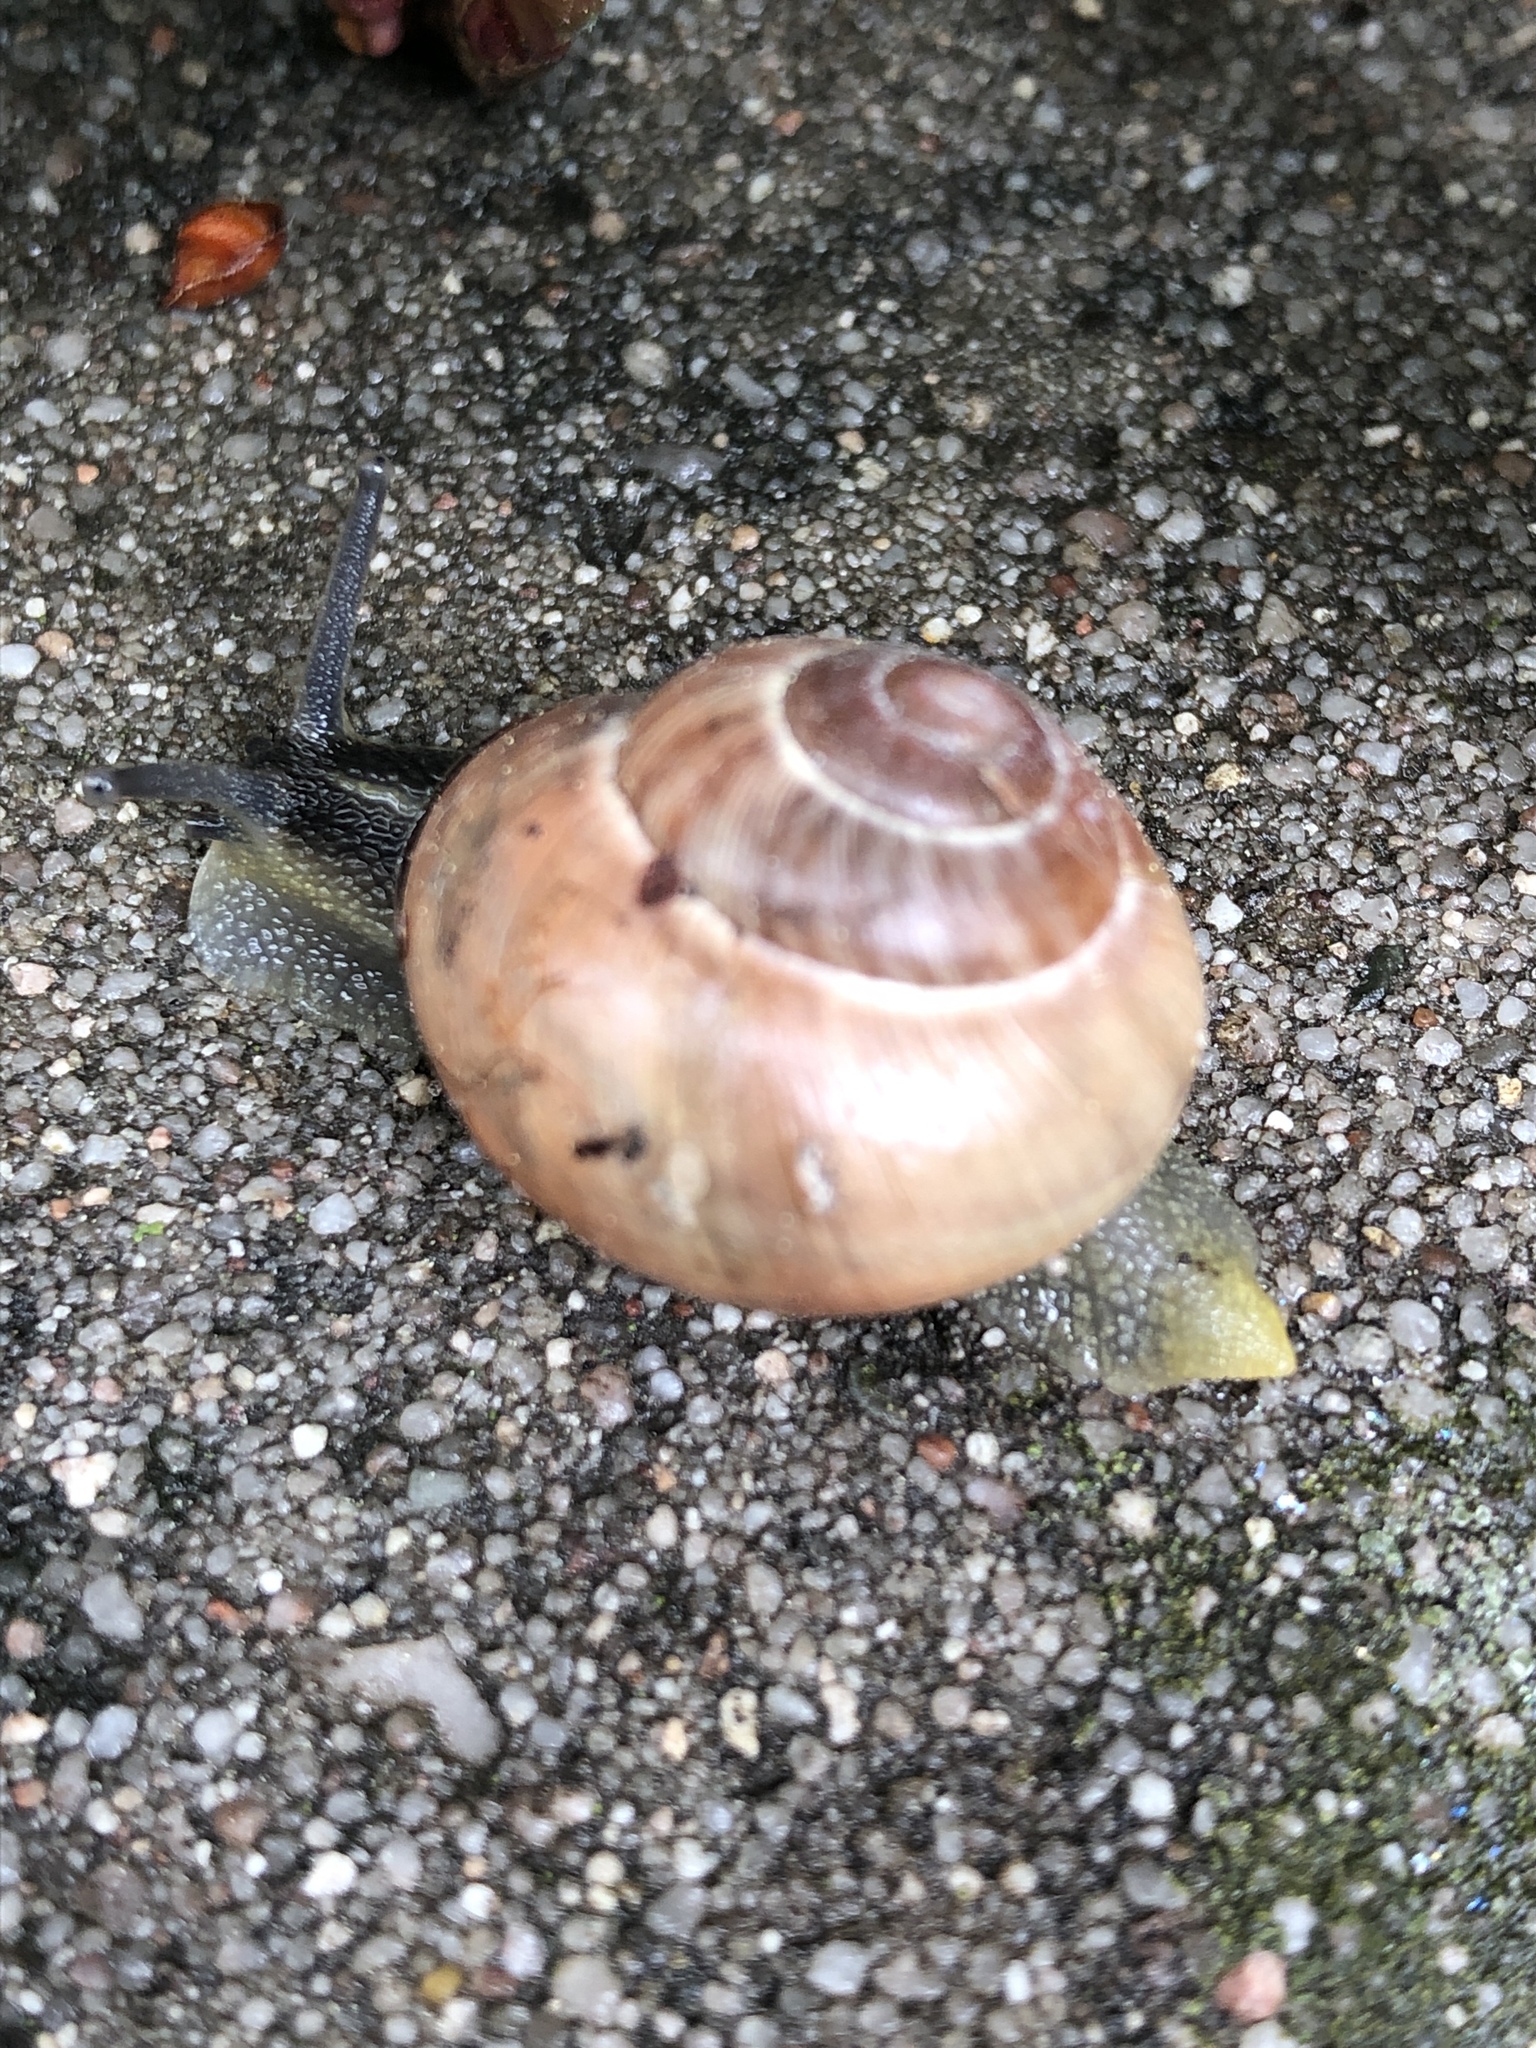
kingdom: Animalia
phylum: Mollusca
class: Gastropoda
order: Stylommatophora
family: Helicidae
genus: Cepaea
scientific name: Cepaea nemoralis
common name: Grovesnail
